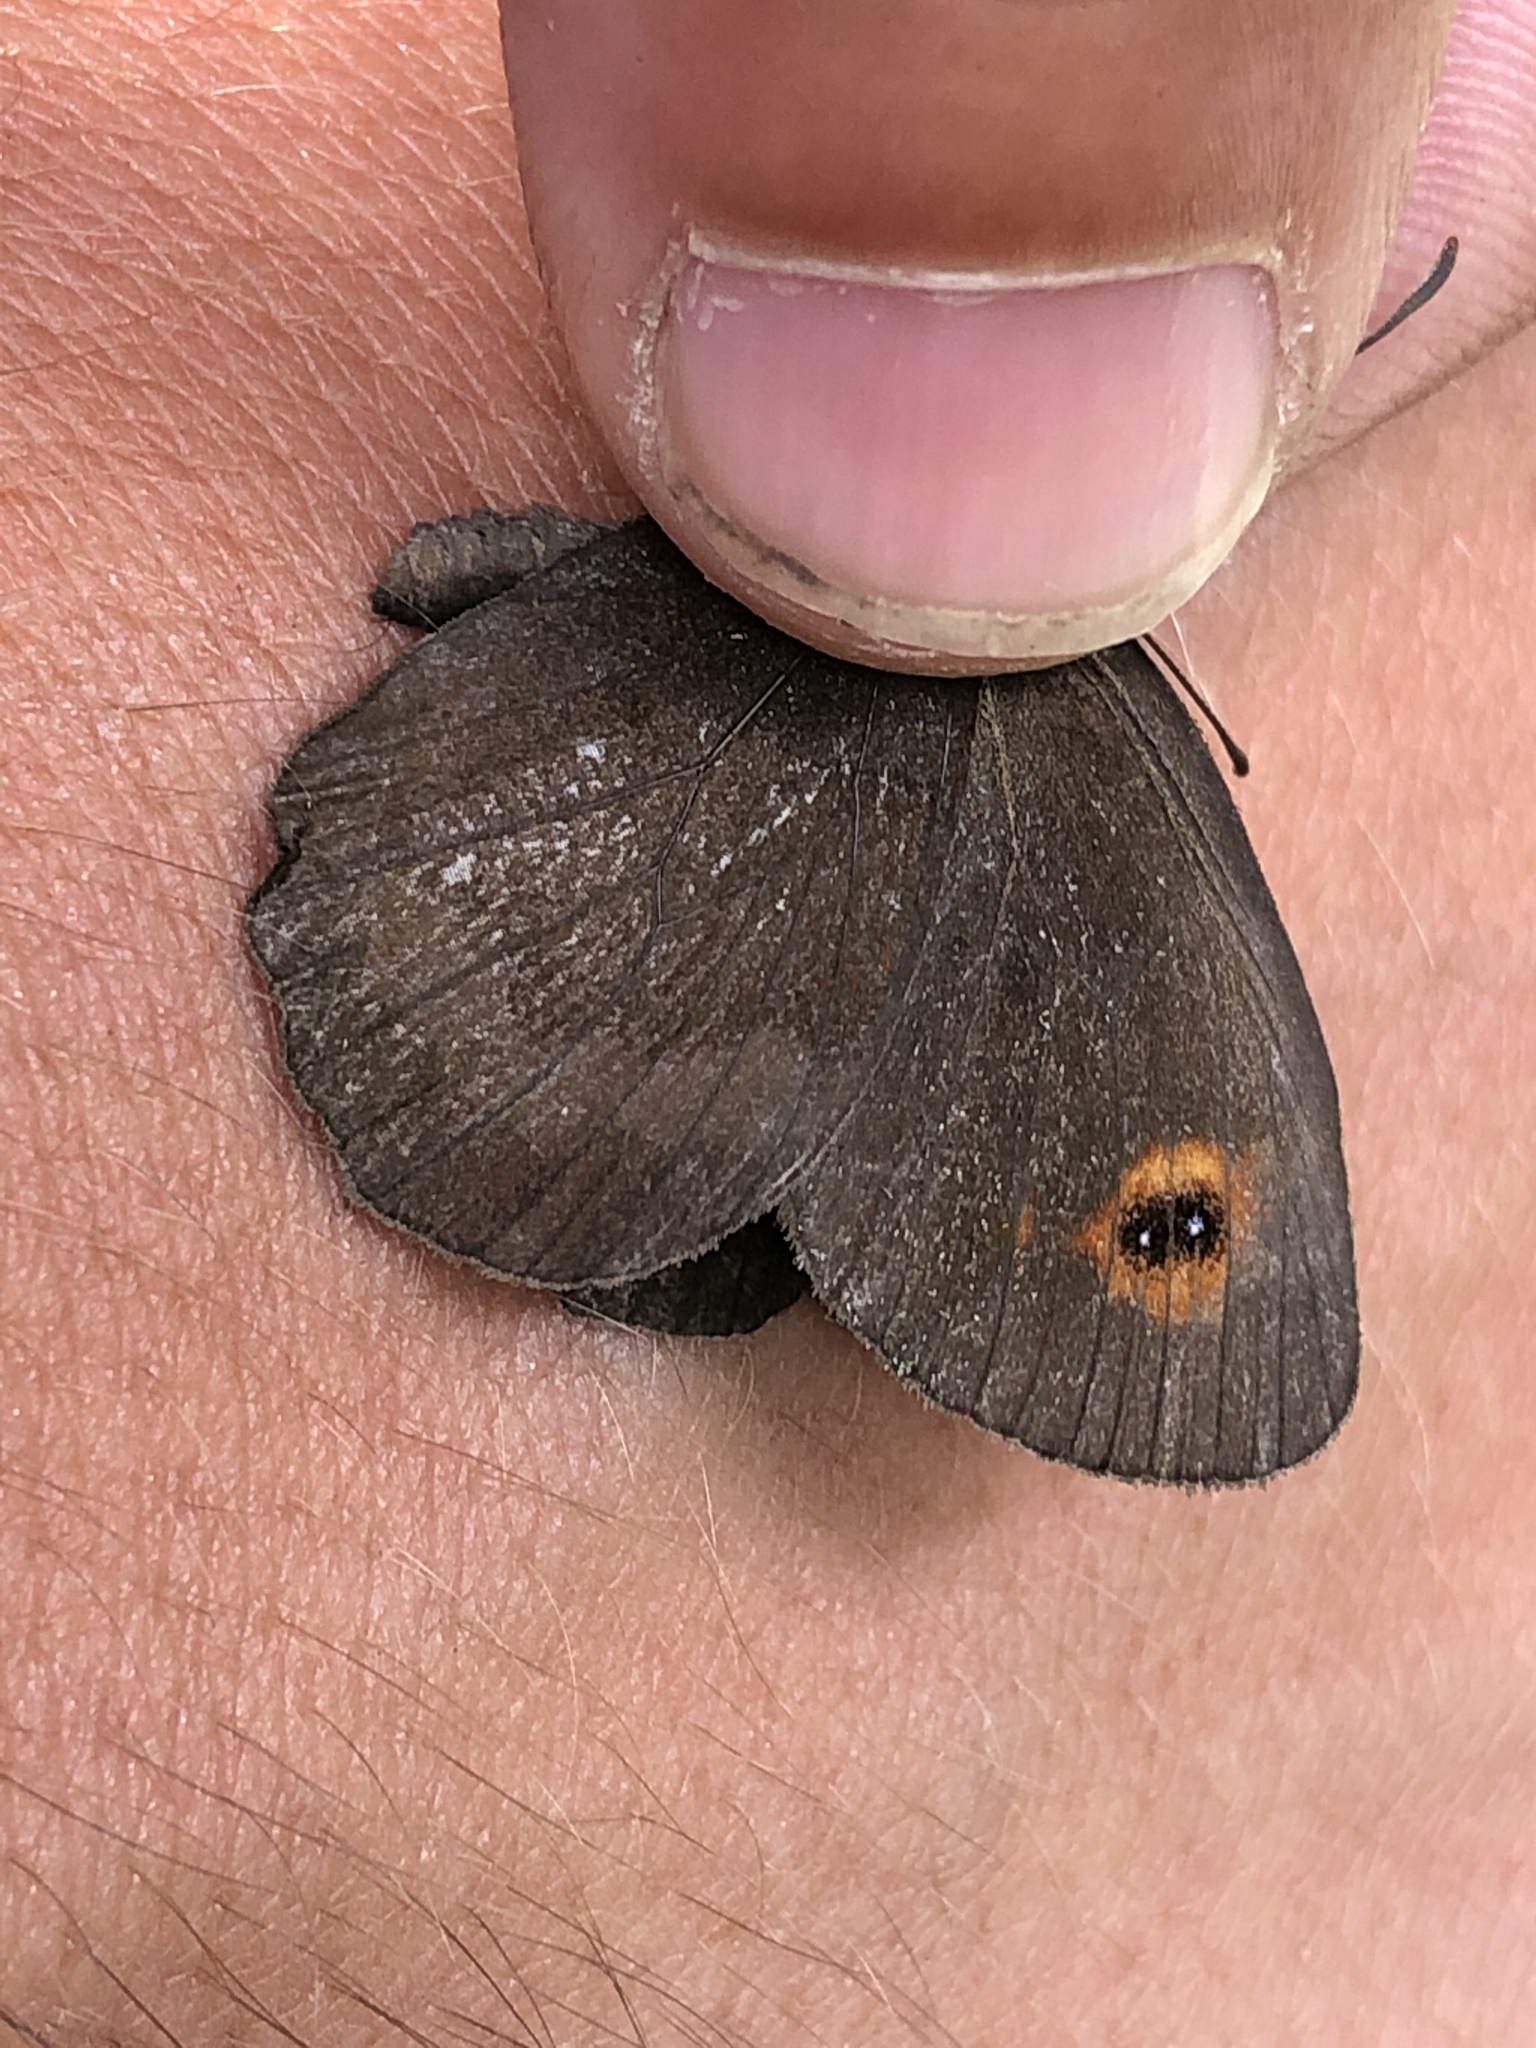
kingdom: Animalia
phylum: Arthropoda
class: Insecta
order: Lepidoptera
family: Nymphalidae
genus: Erebia
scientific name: Erebia aethiops
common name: Scotch argus
